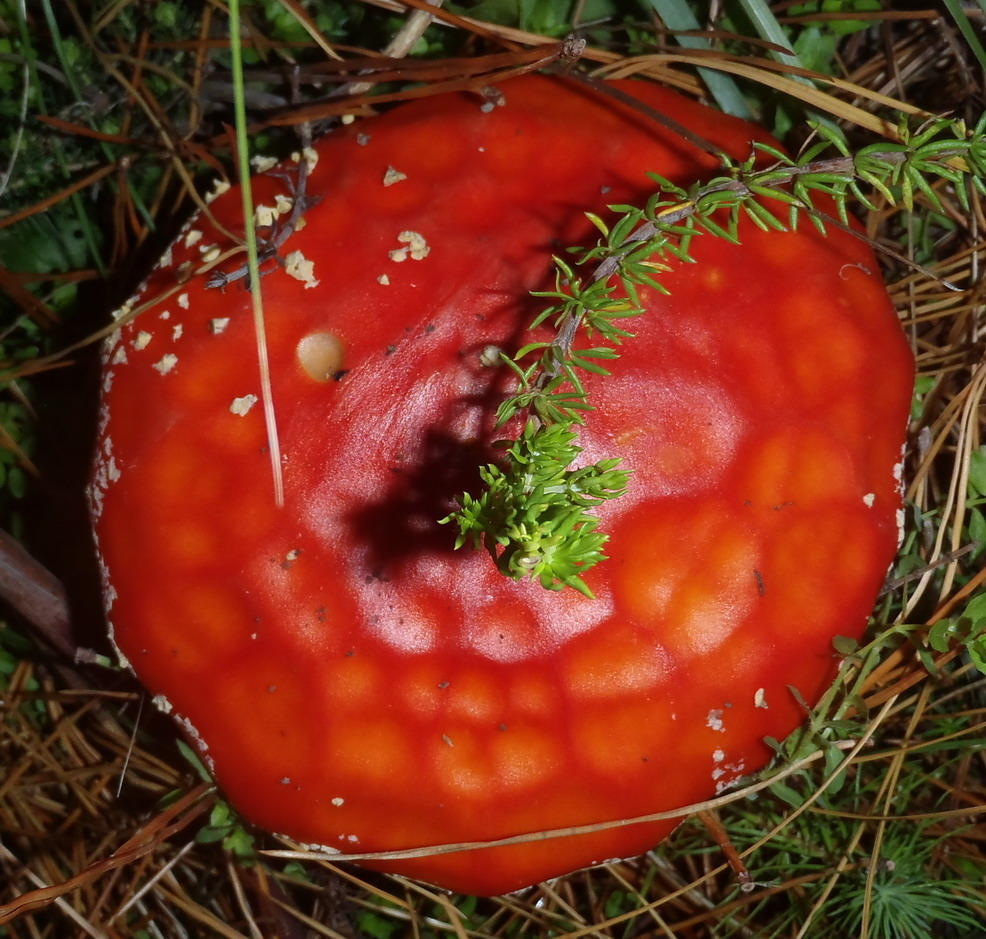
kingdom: Fungi
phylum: Basidiomycota
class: Agaricomycetes
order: Agaricales
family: Amanitaceae
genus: Amanita
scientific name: Amanita muscaria
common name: Fly agaric
